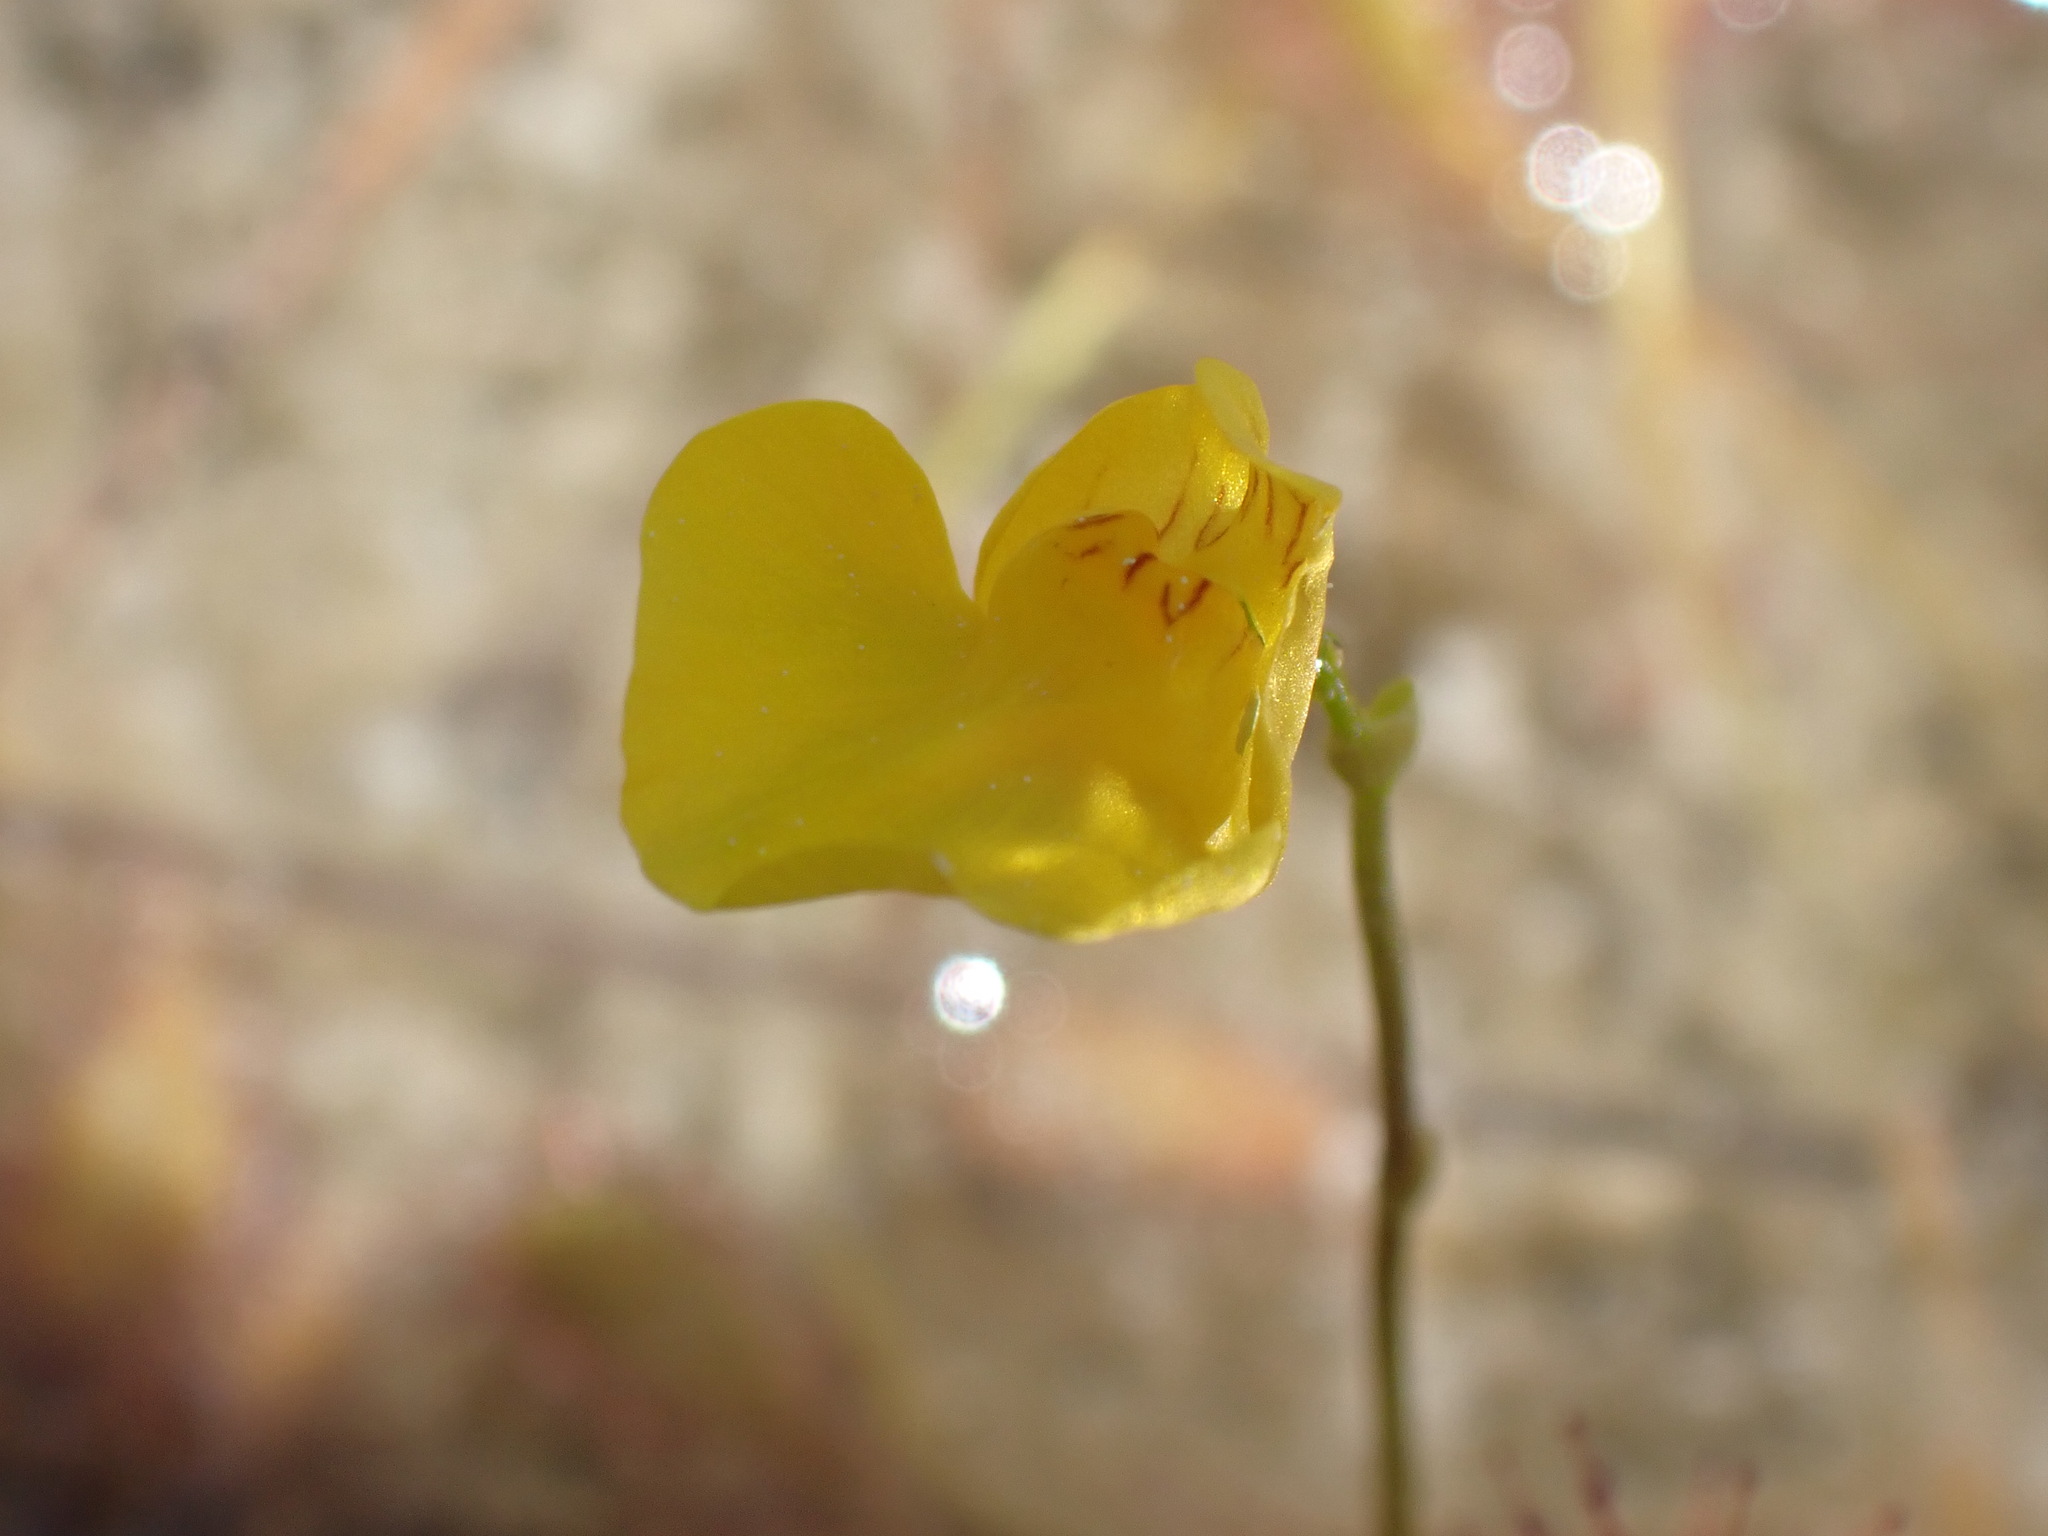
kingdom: Plantae
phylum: Tracheophyta
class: Magnoliopsida
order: Lamiales
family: Lentibulariaceae
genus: Utricularia
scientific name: Utricularia intermedia
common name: Intermediate bladderwort
